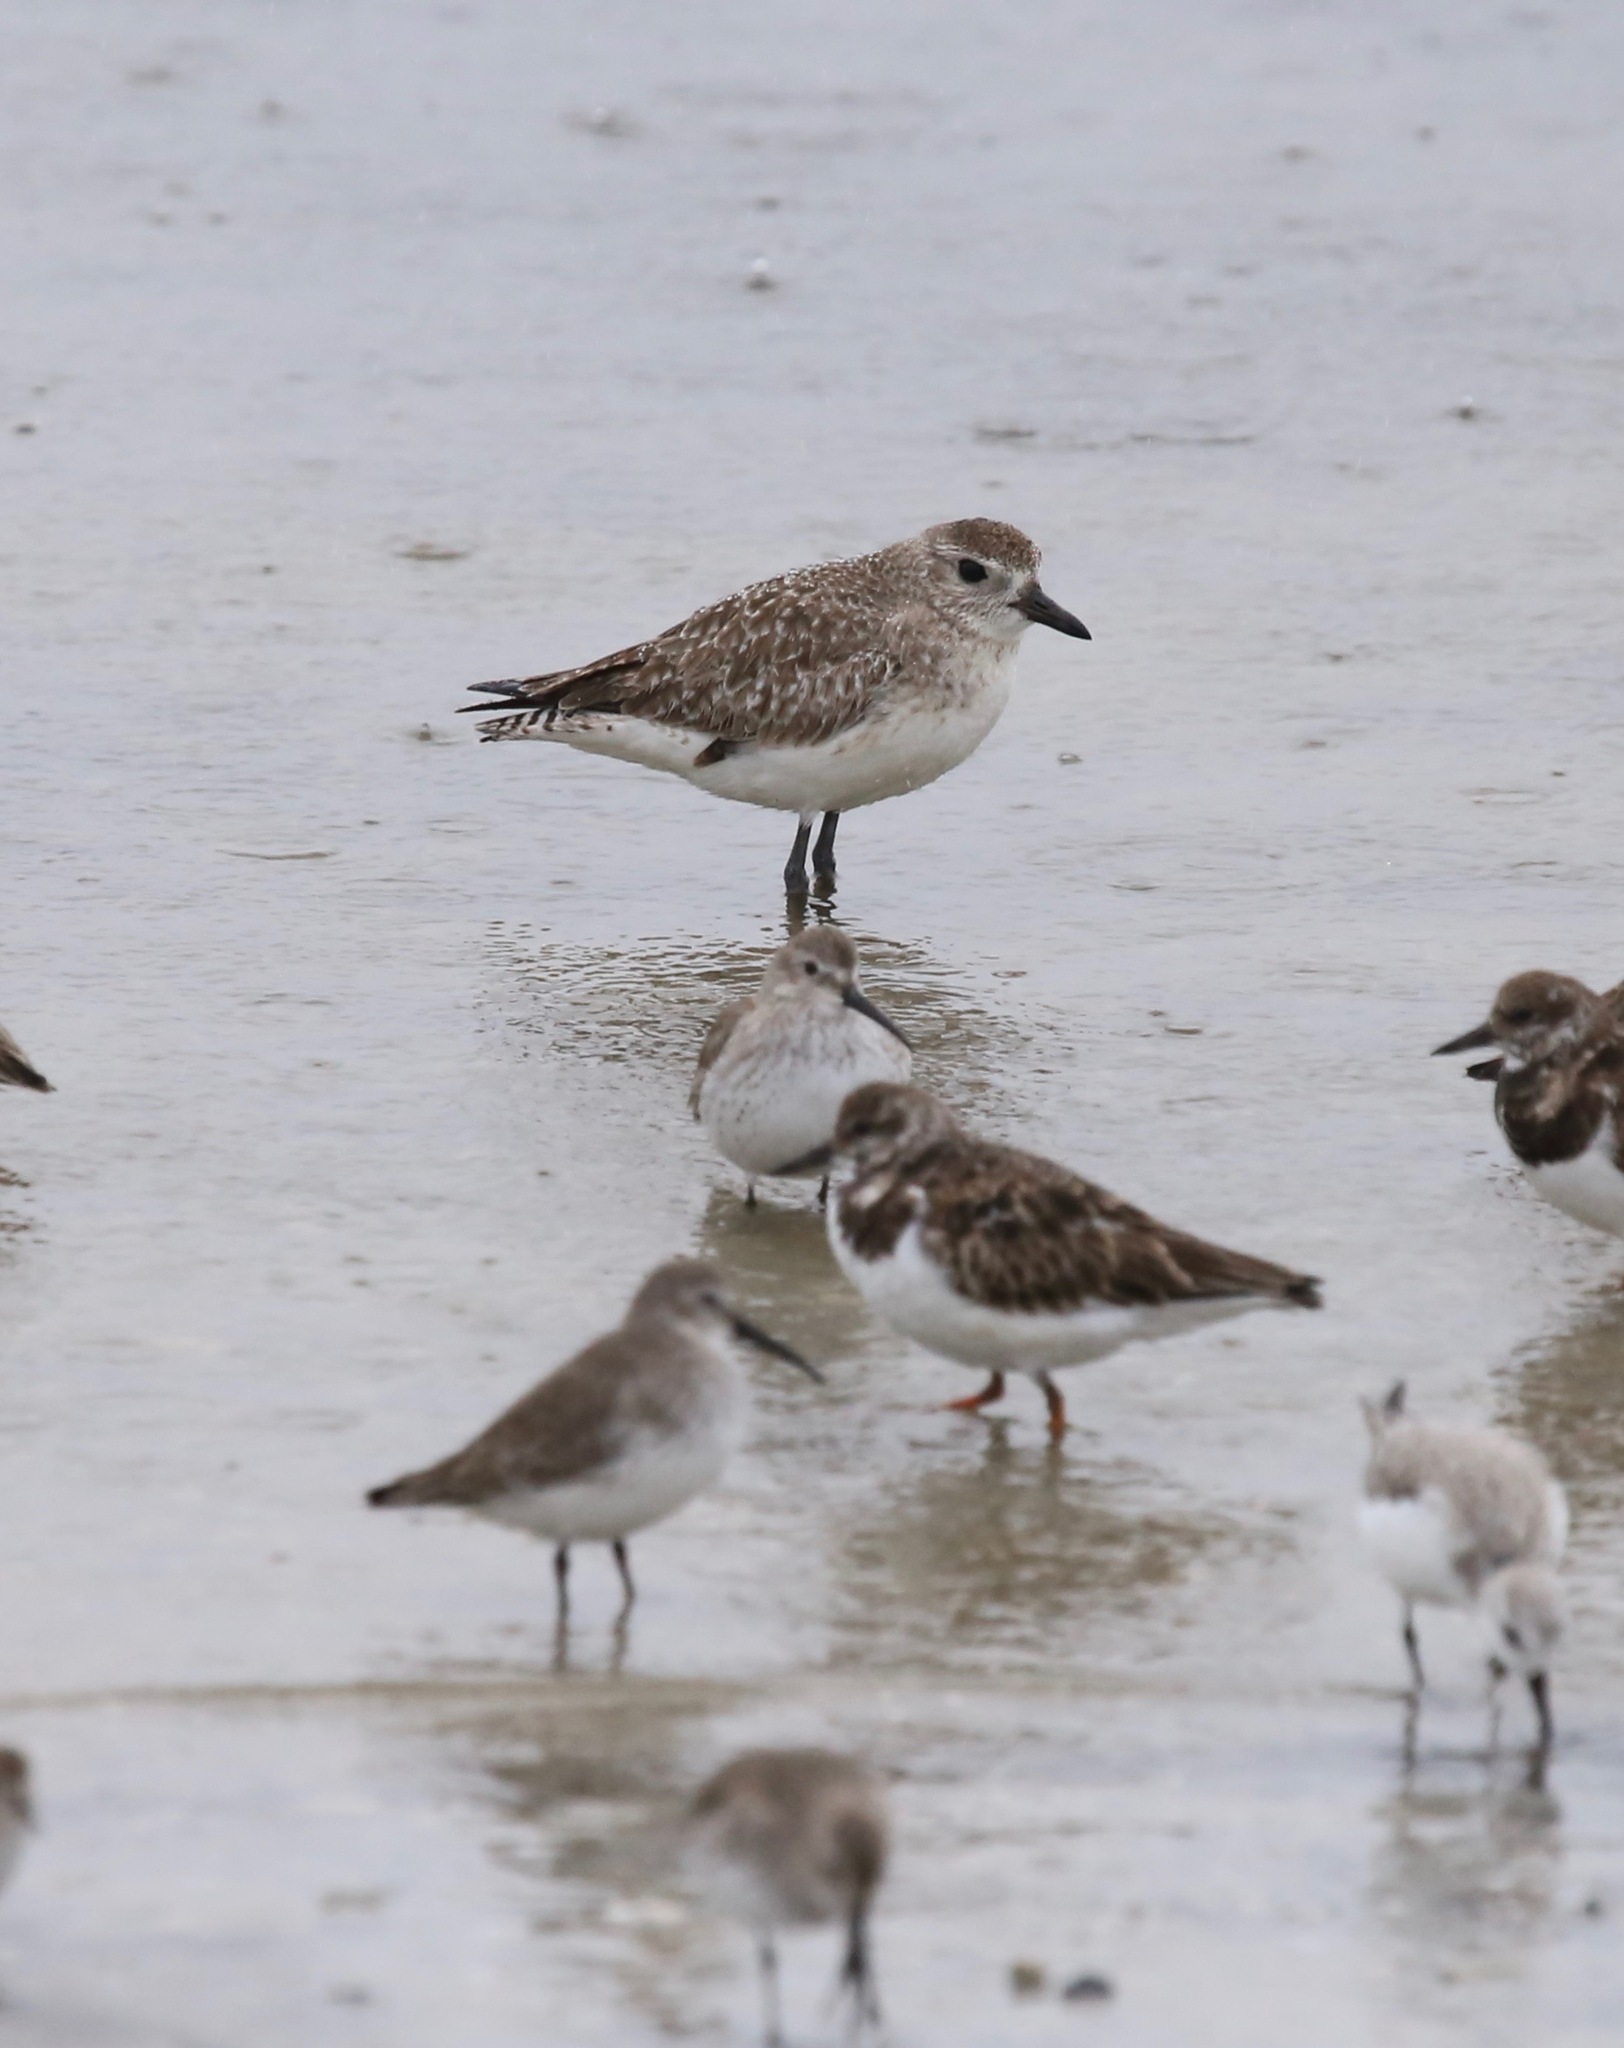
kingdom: Animalia
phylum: Chordata
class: Aves
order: Charadriiformes
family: Charadriidae
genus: Pluvialis
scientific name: Pluvialis squatarola
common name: Grey plover
